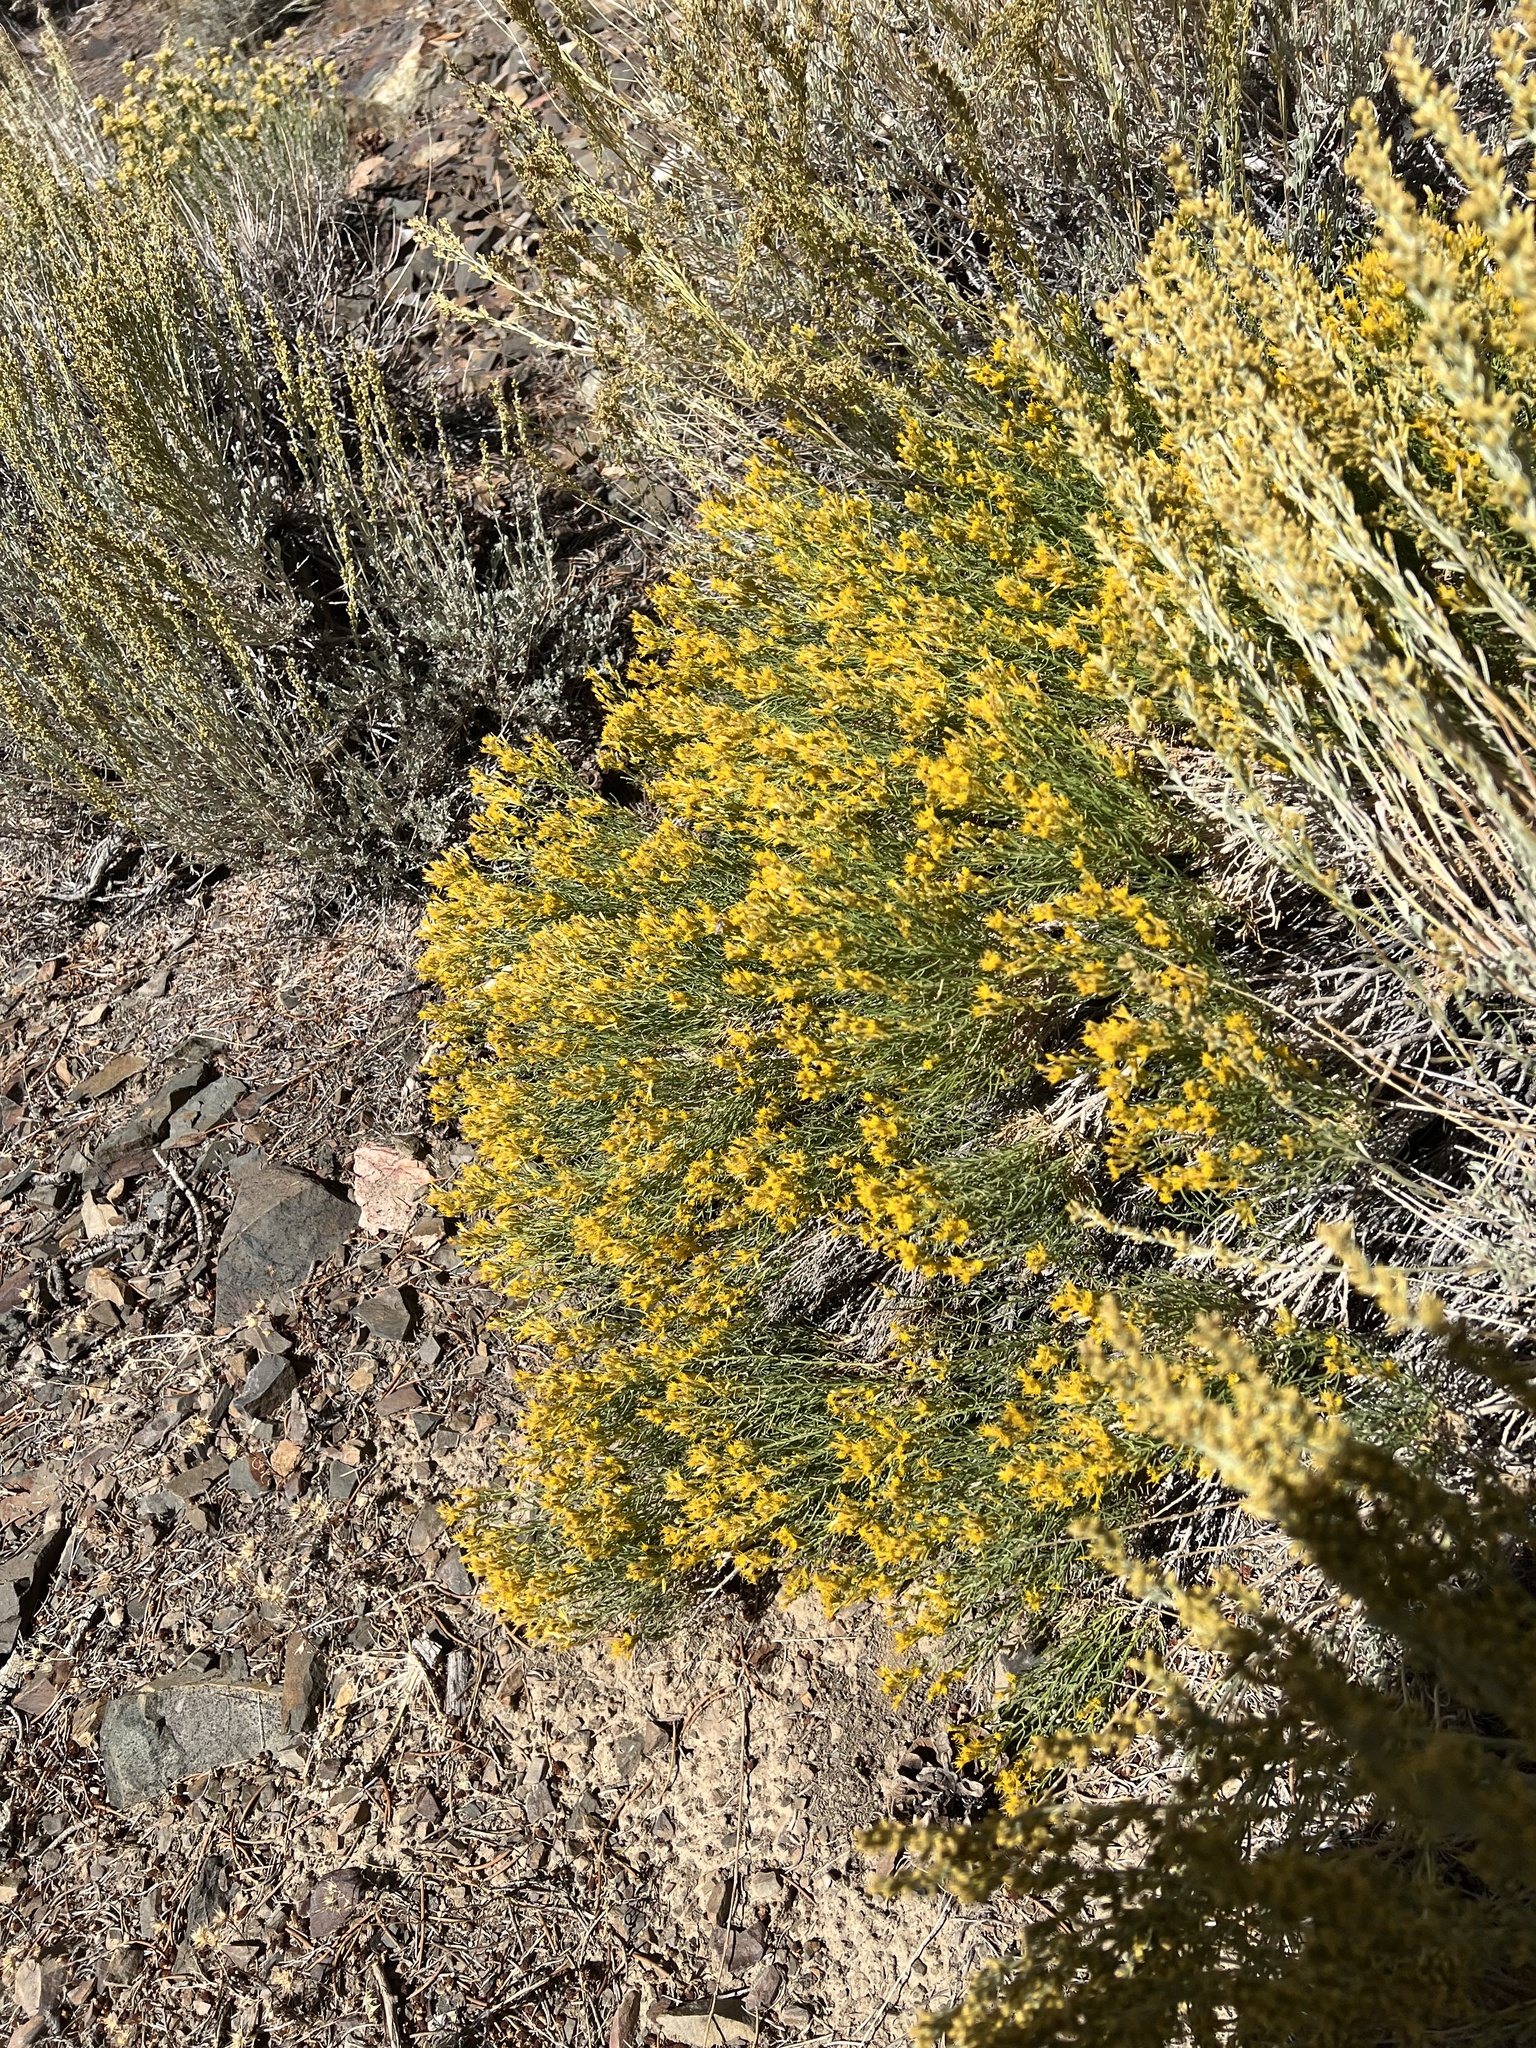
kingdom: Plantae
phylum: Tracheophyta
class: Magnoliopsida
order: Asterales
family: Asteraceae
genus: Ericameria
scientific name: Ericameria teretifolia
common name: Round-leaf rabbitbrush
